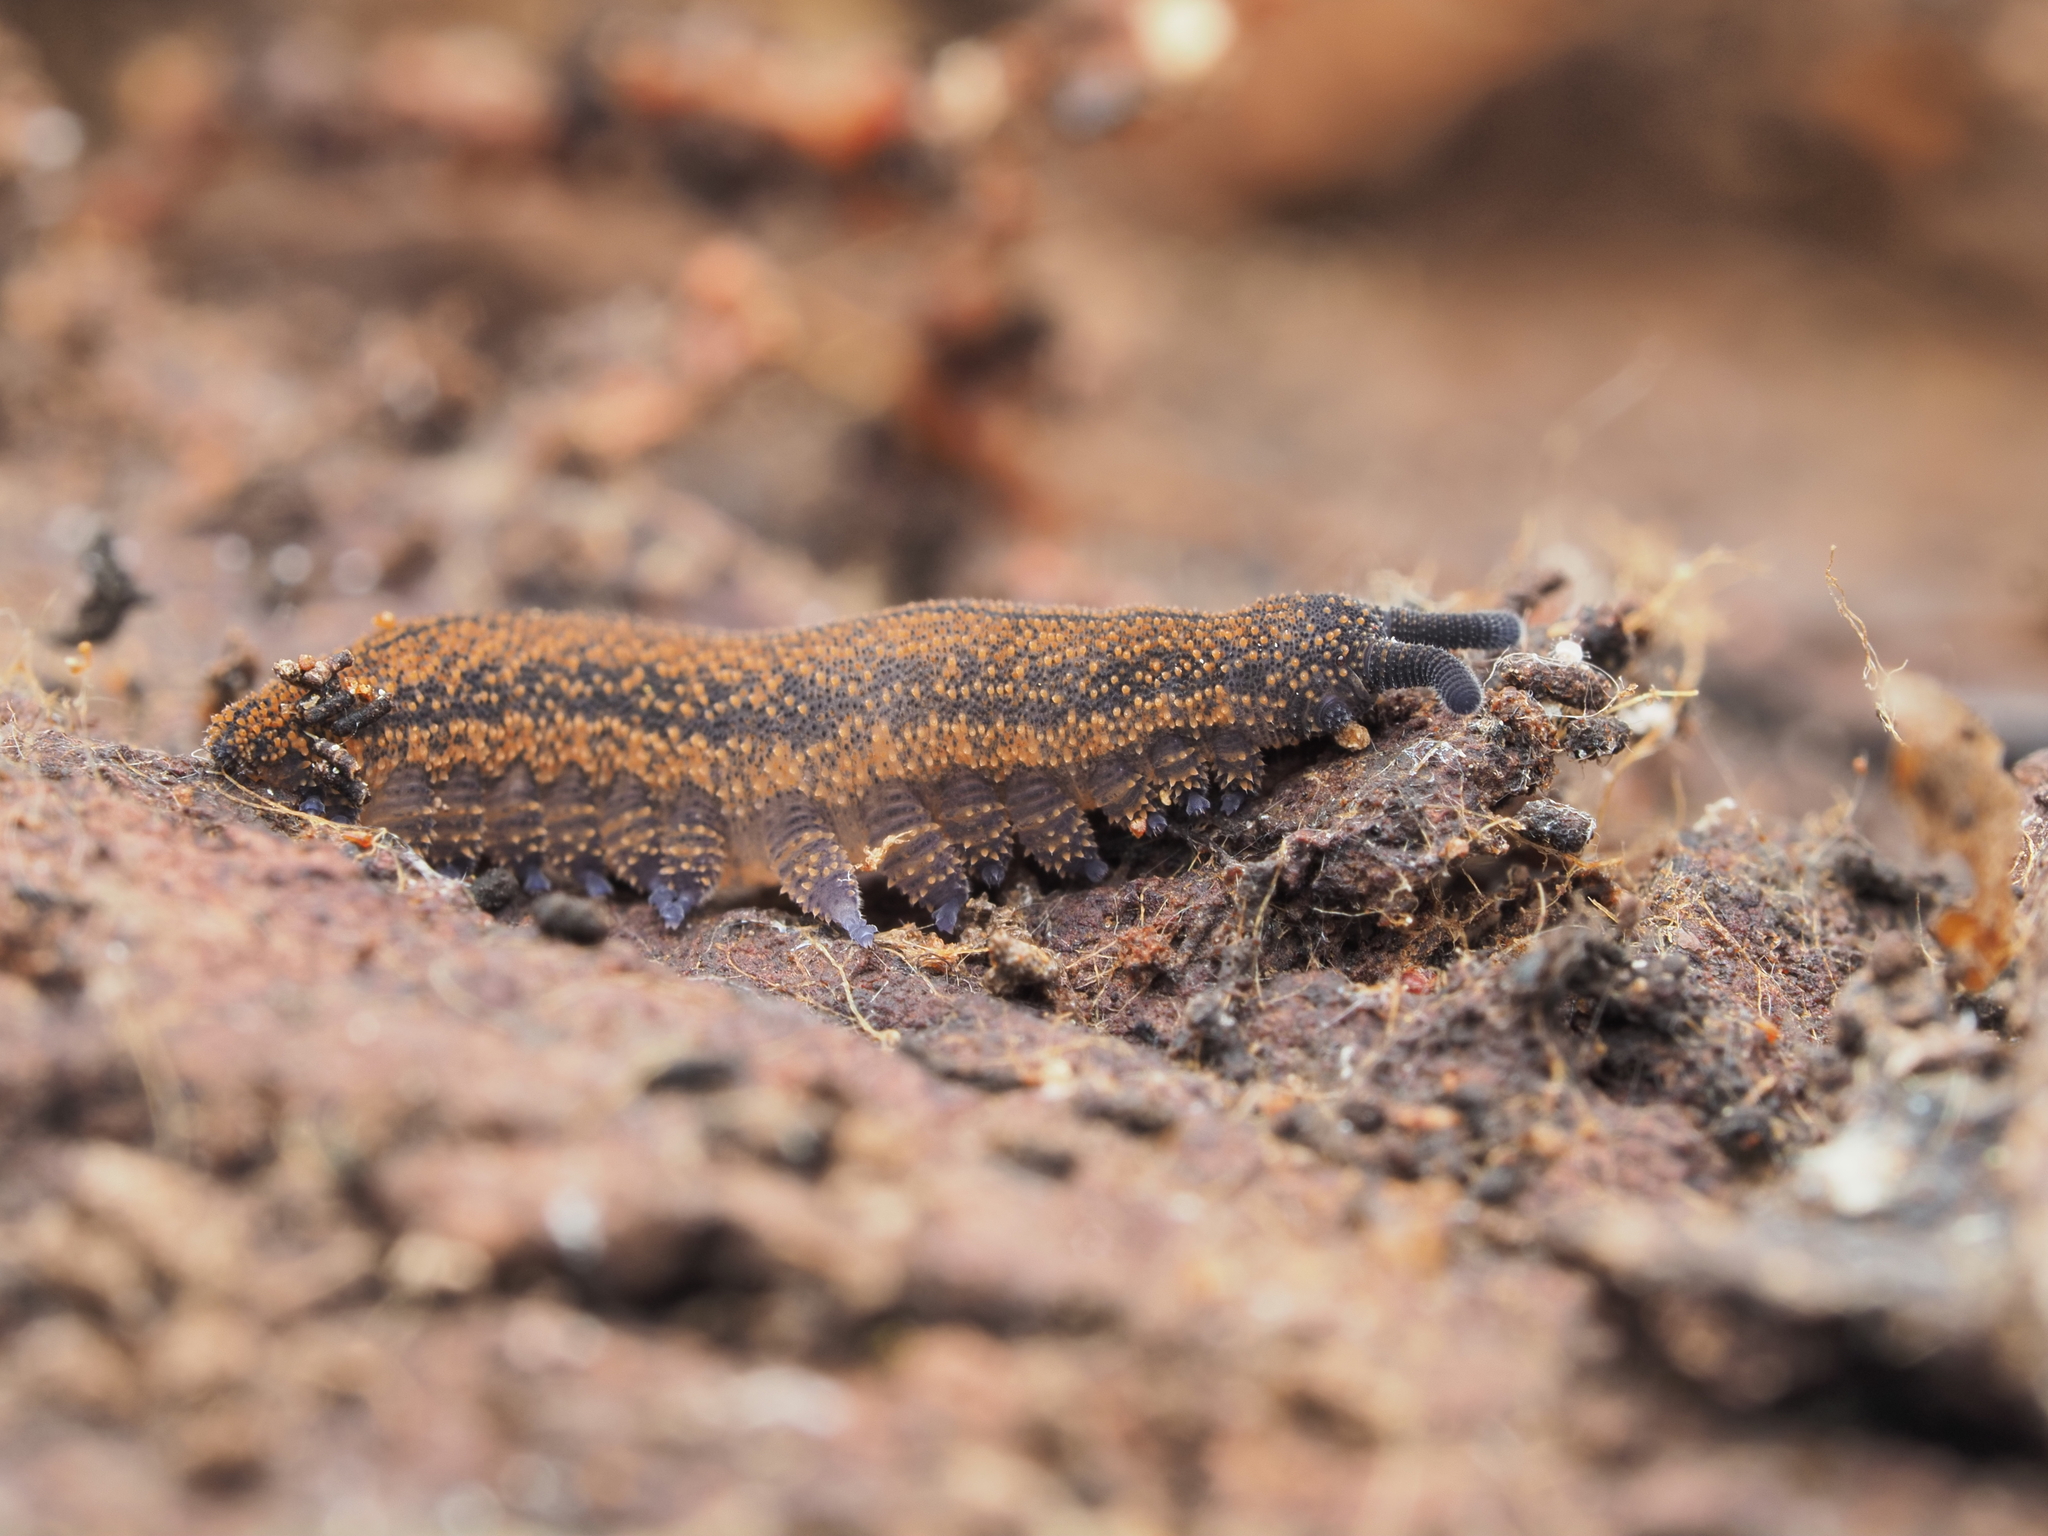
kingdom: Animalia
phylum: Onychophora
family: Peripatopsidae
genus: Peripatoides
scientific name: Peripatoides novaezealandiae
